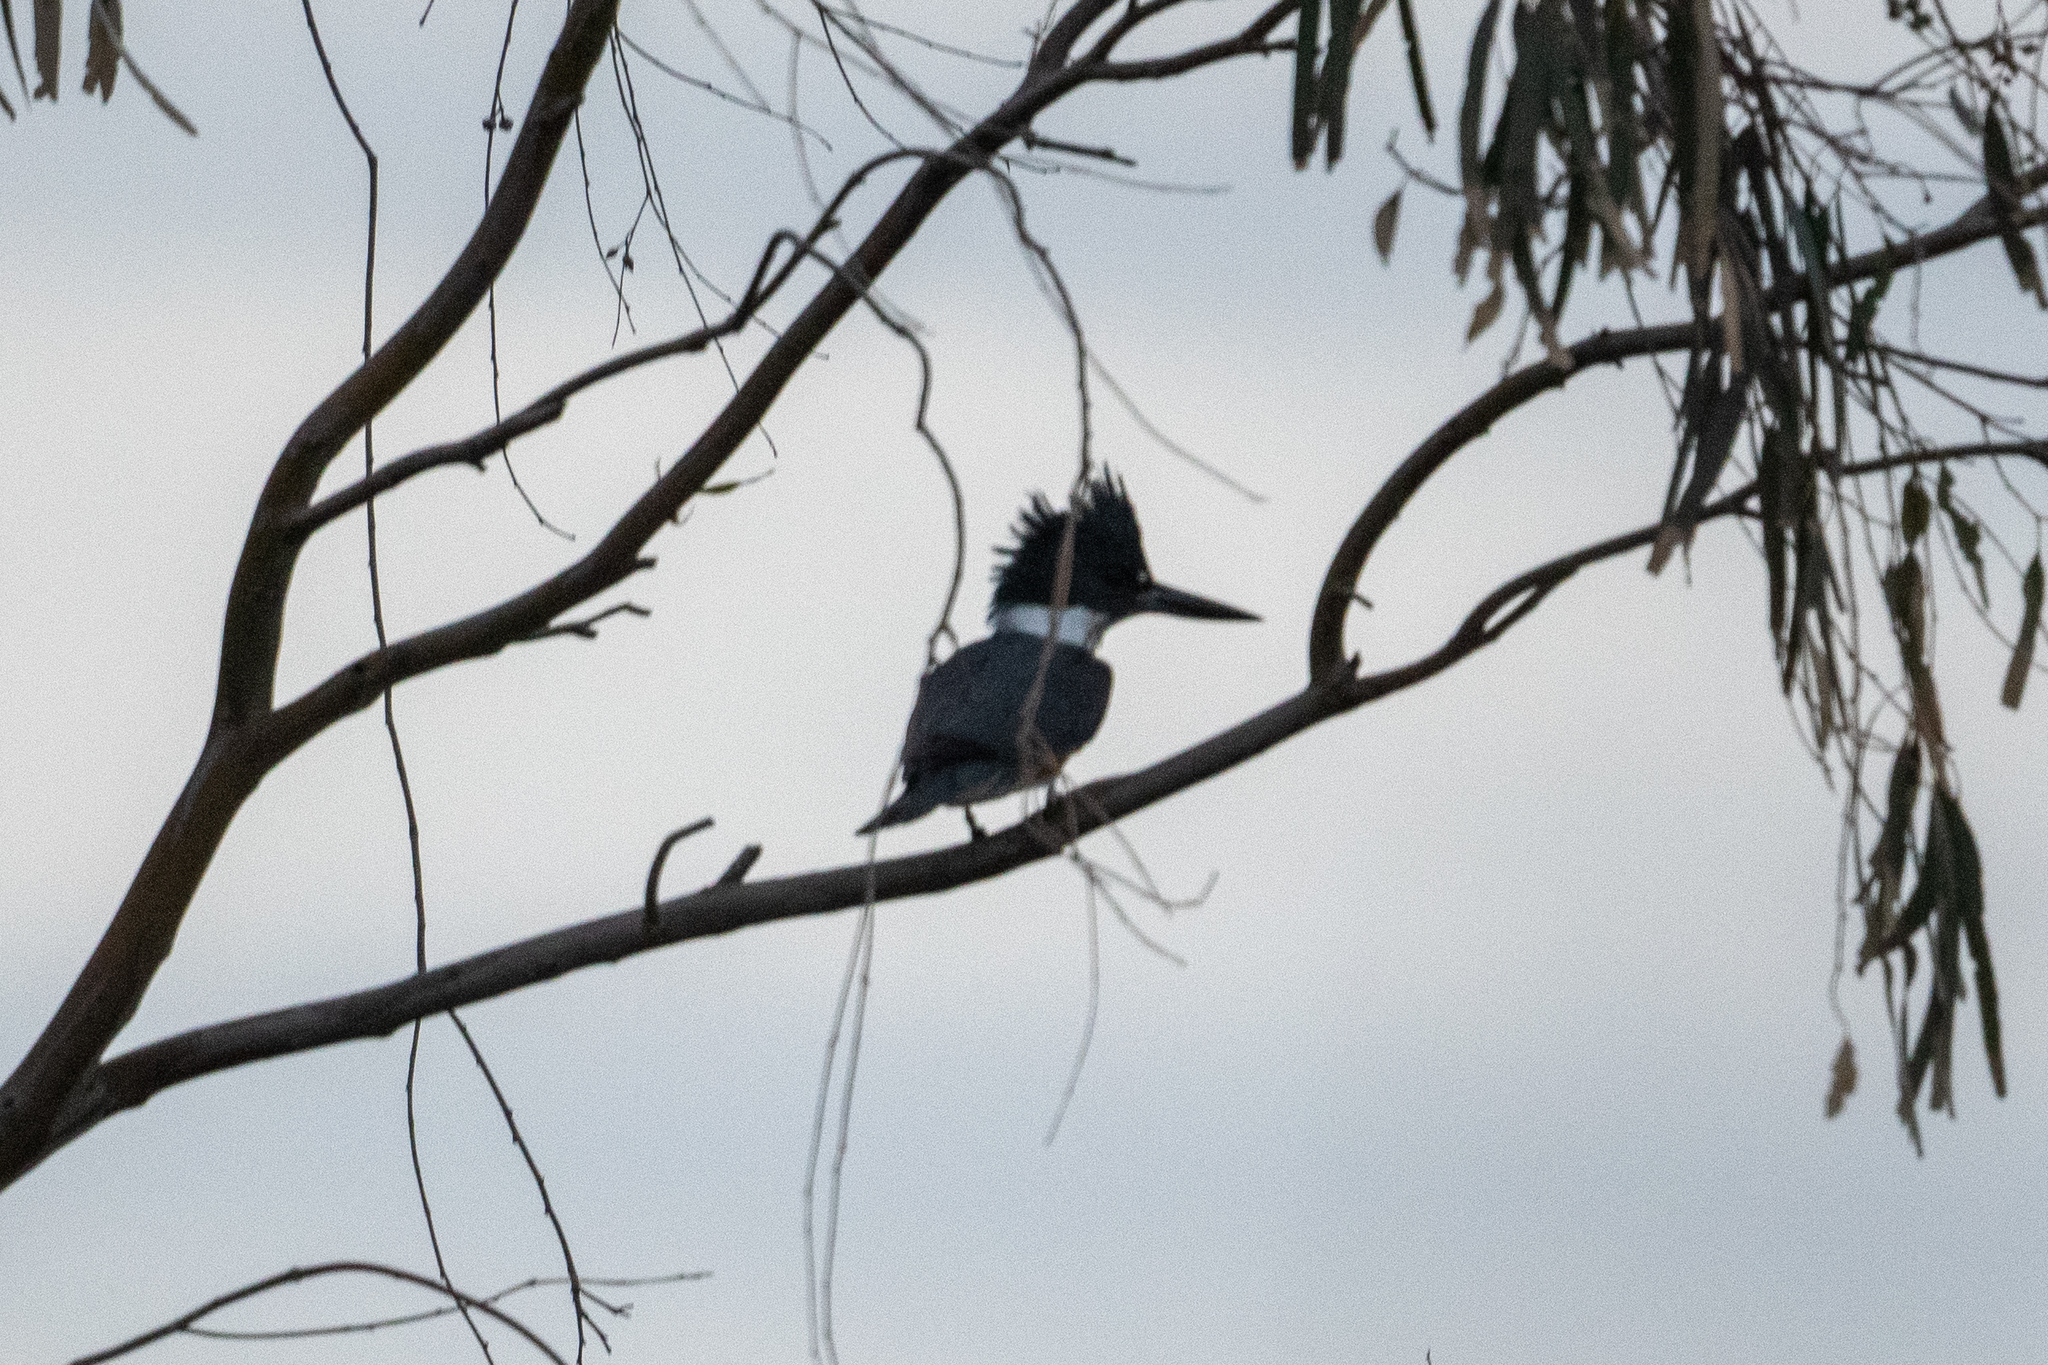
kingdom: Animalia
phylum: Chordata
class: Aves
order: Coraciiformes
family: Alcedinidae
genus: Megaceryle
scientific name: Megaceryle alcyon
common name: Belted kingfisher
